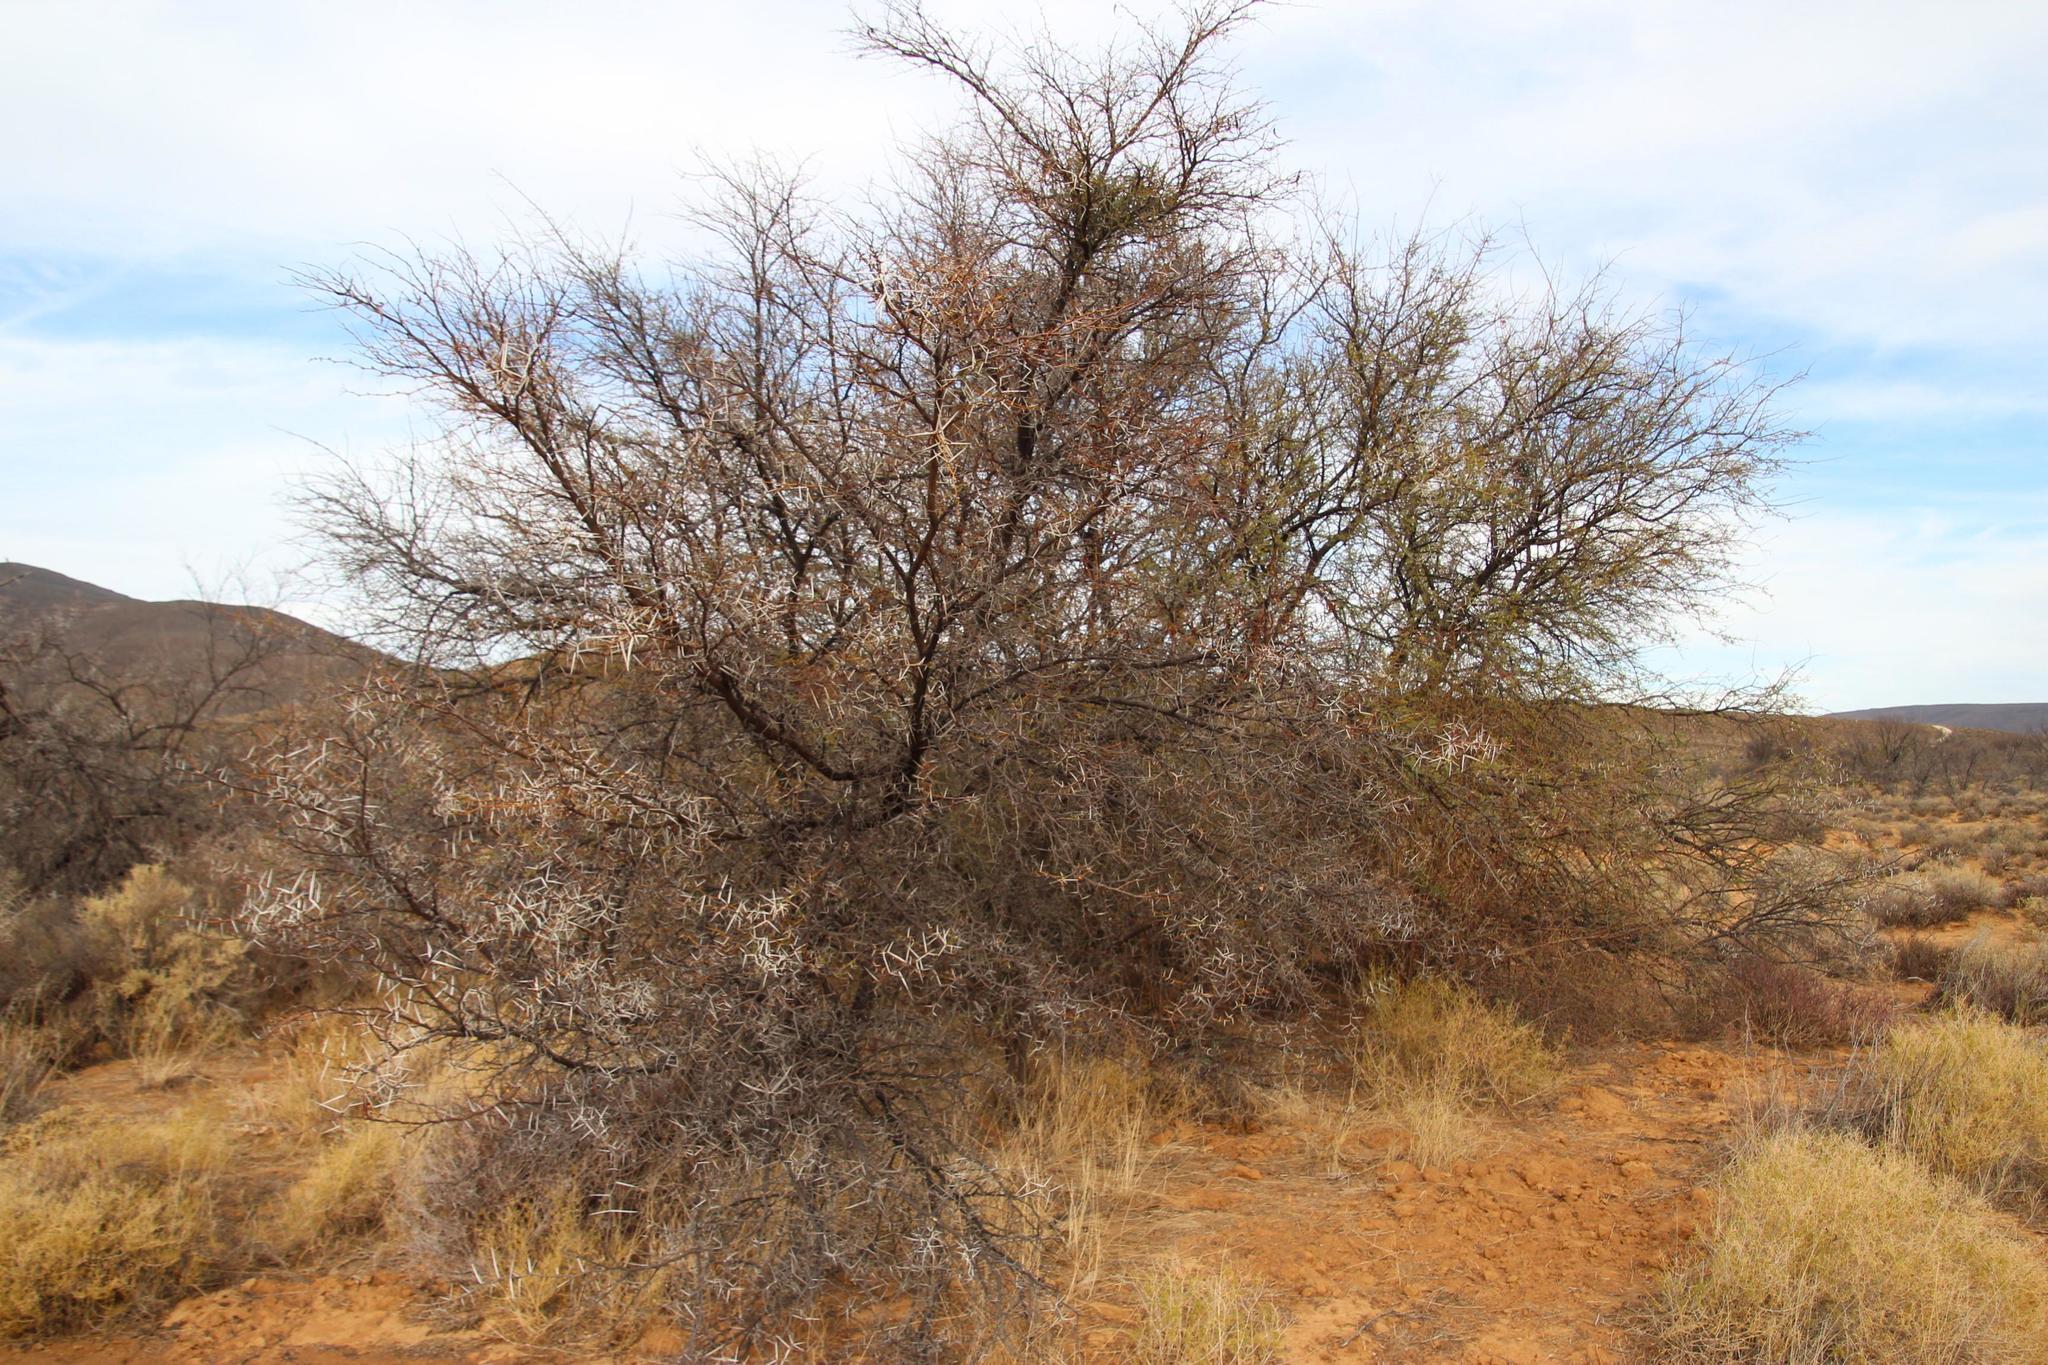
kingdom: Plantae
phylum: Tracheophyta
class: Magnoliopsida
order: Fabales
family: Fabaceae
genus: Vachellia
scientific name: Vachellia karroo
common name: Sweet thorn
